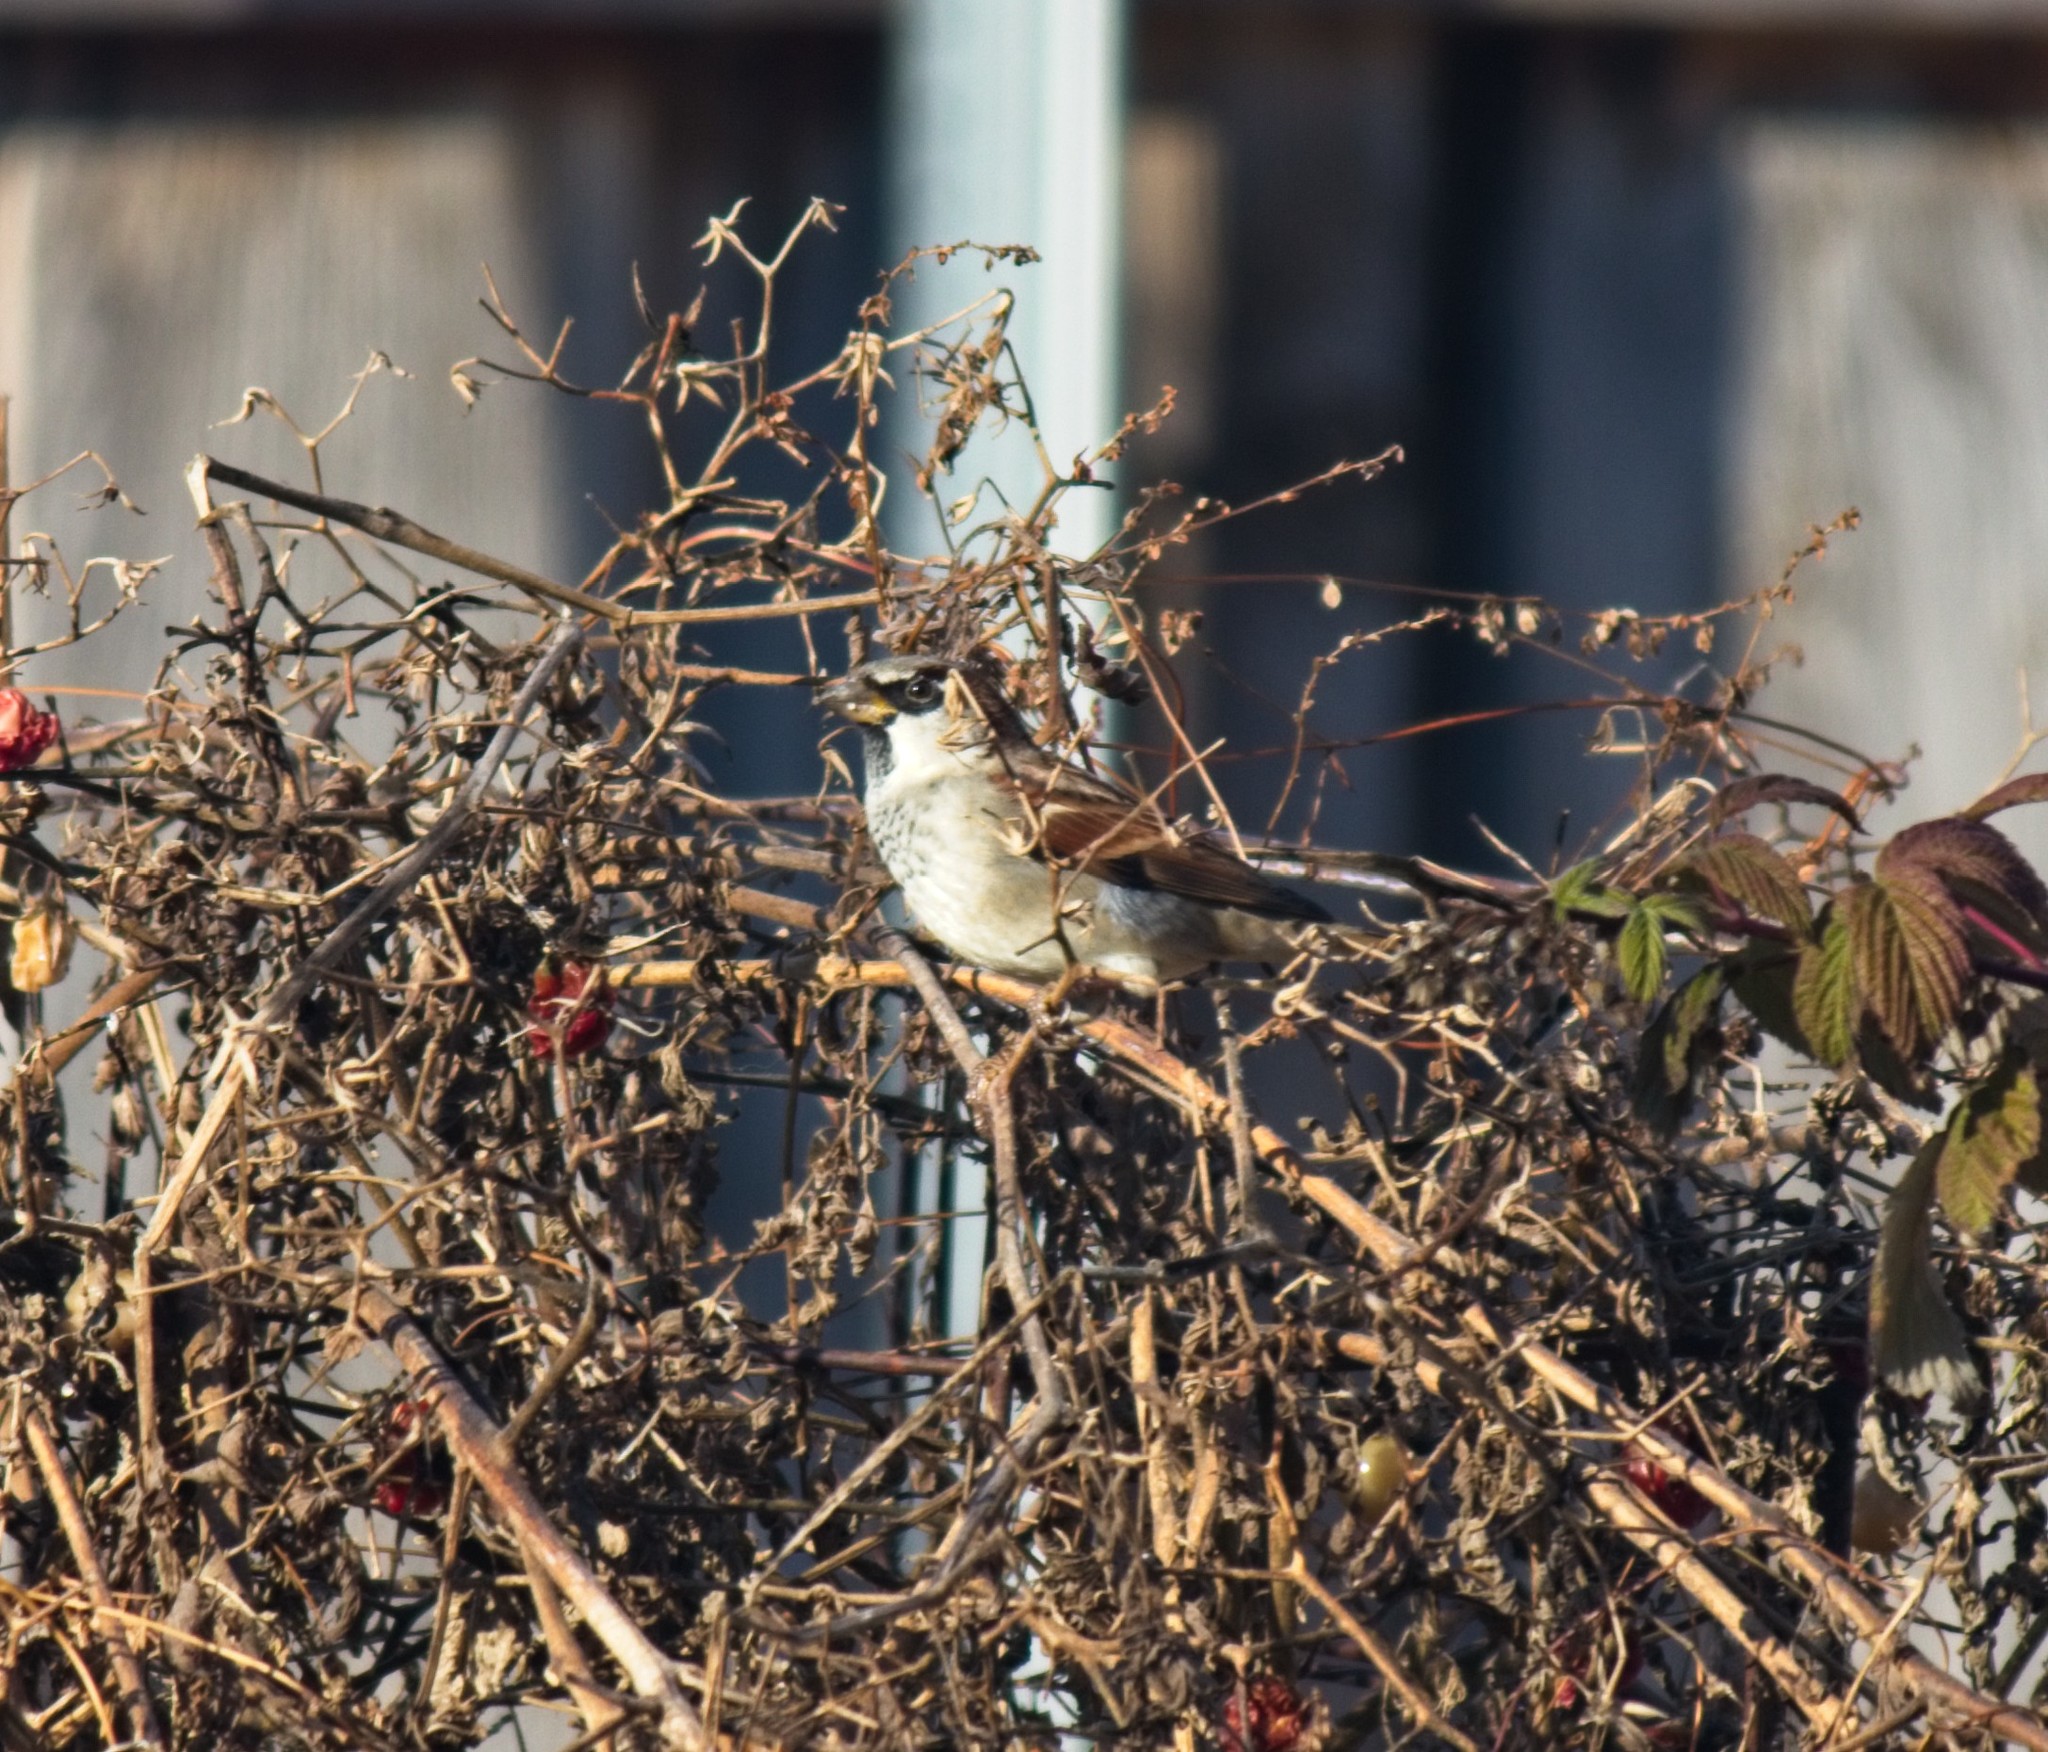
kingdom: Animalia
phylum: Chordata
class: Aves
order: Passeriformes
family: Passeridae
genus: Passer
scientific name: Passer domesticus
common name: House sparrow
